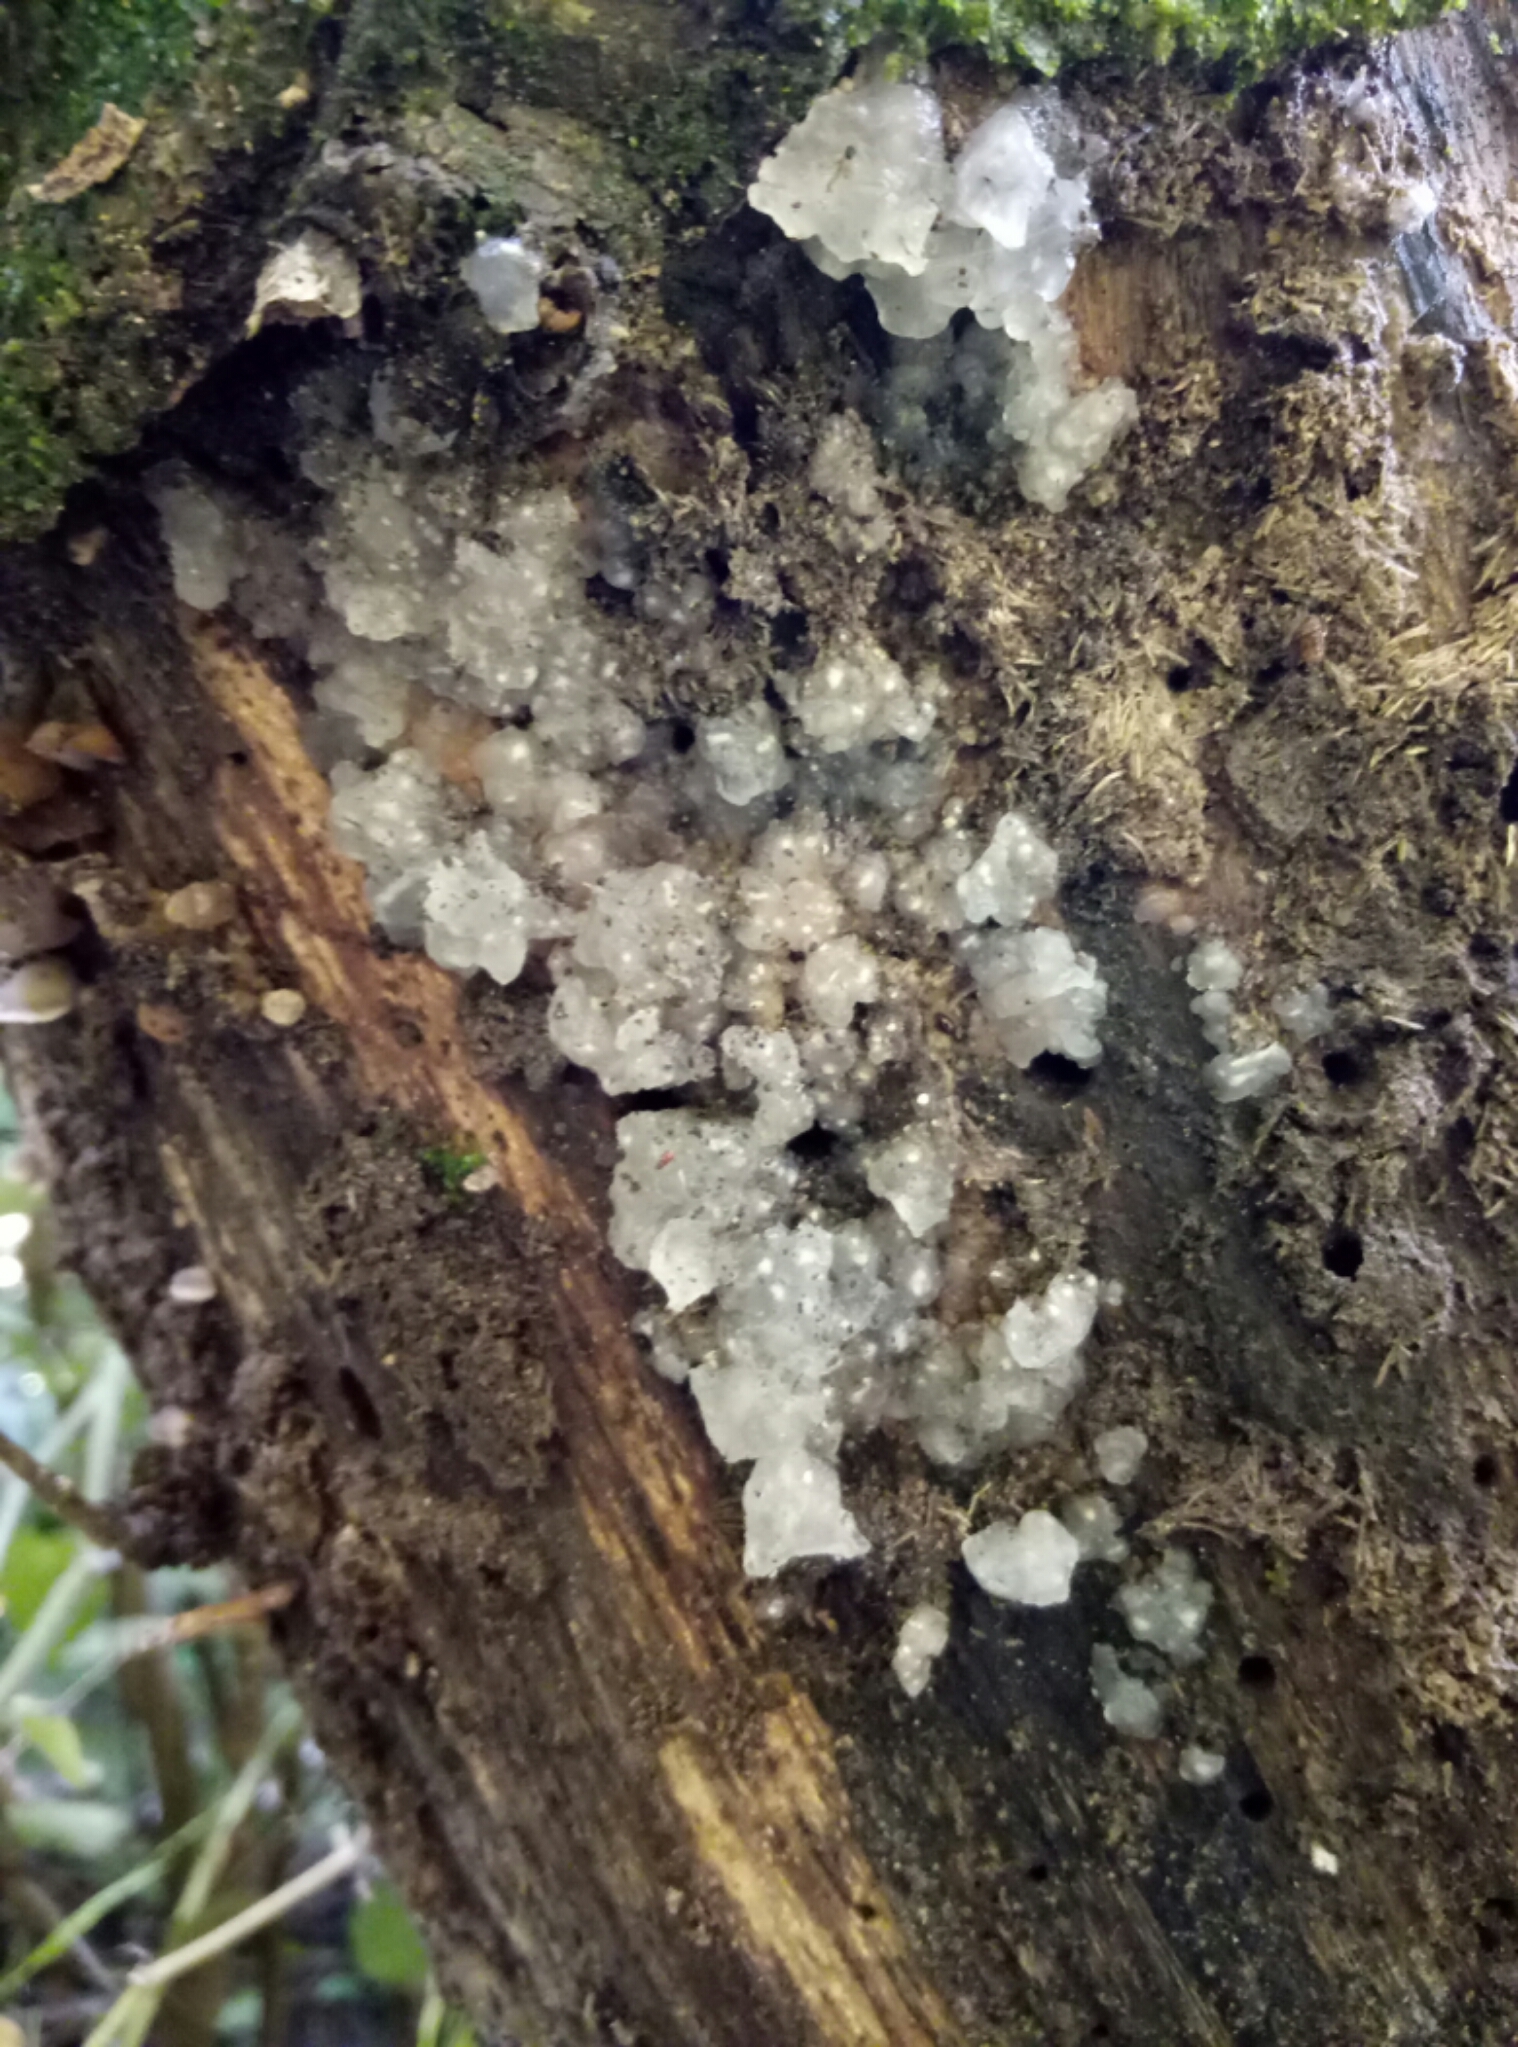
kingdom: Fungi
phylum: Basidiomycota
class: Agaricomycetes
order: Auriculariales
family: Hyaloriaceae
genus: Myxarium
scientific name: Myxarium nucleatum
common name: Crystal brain fungus
